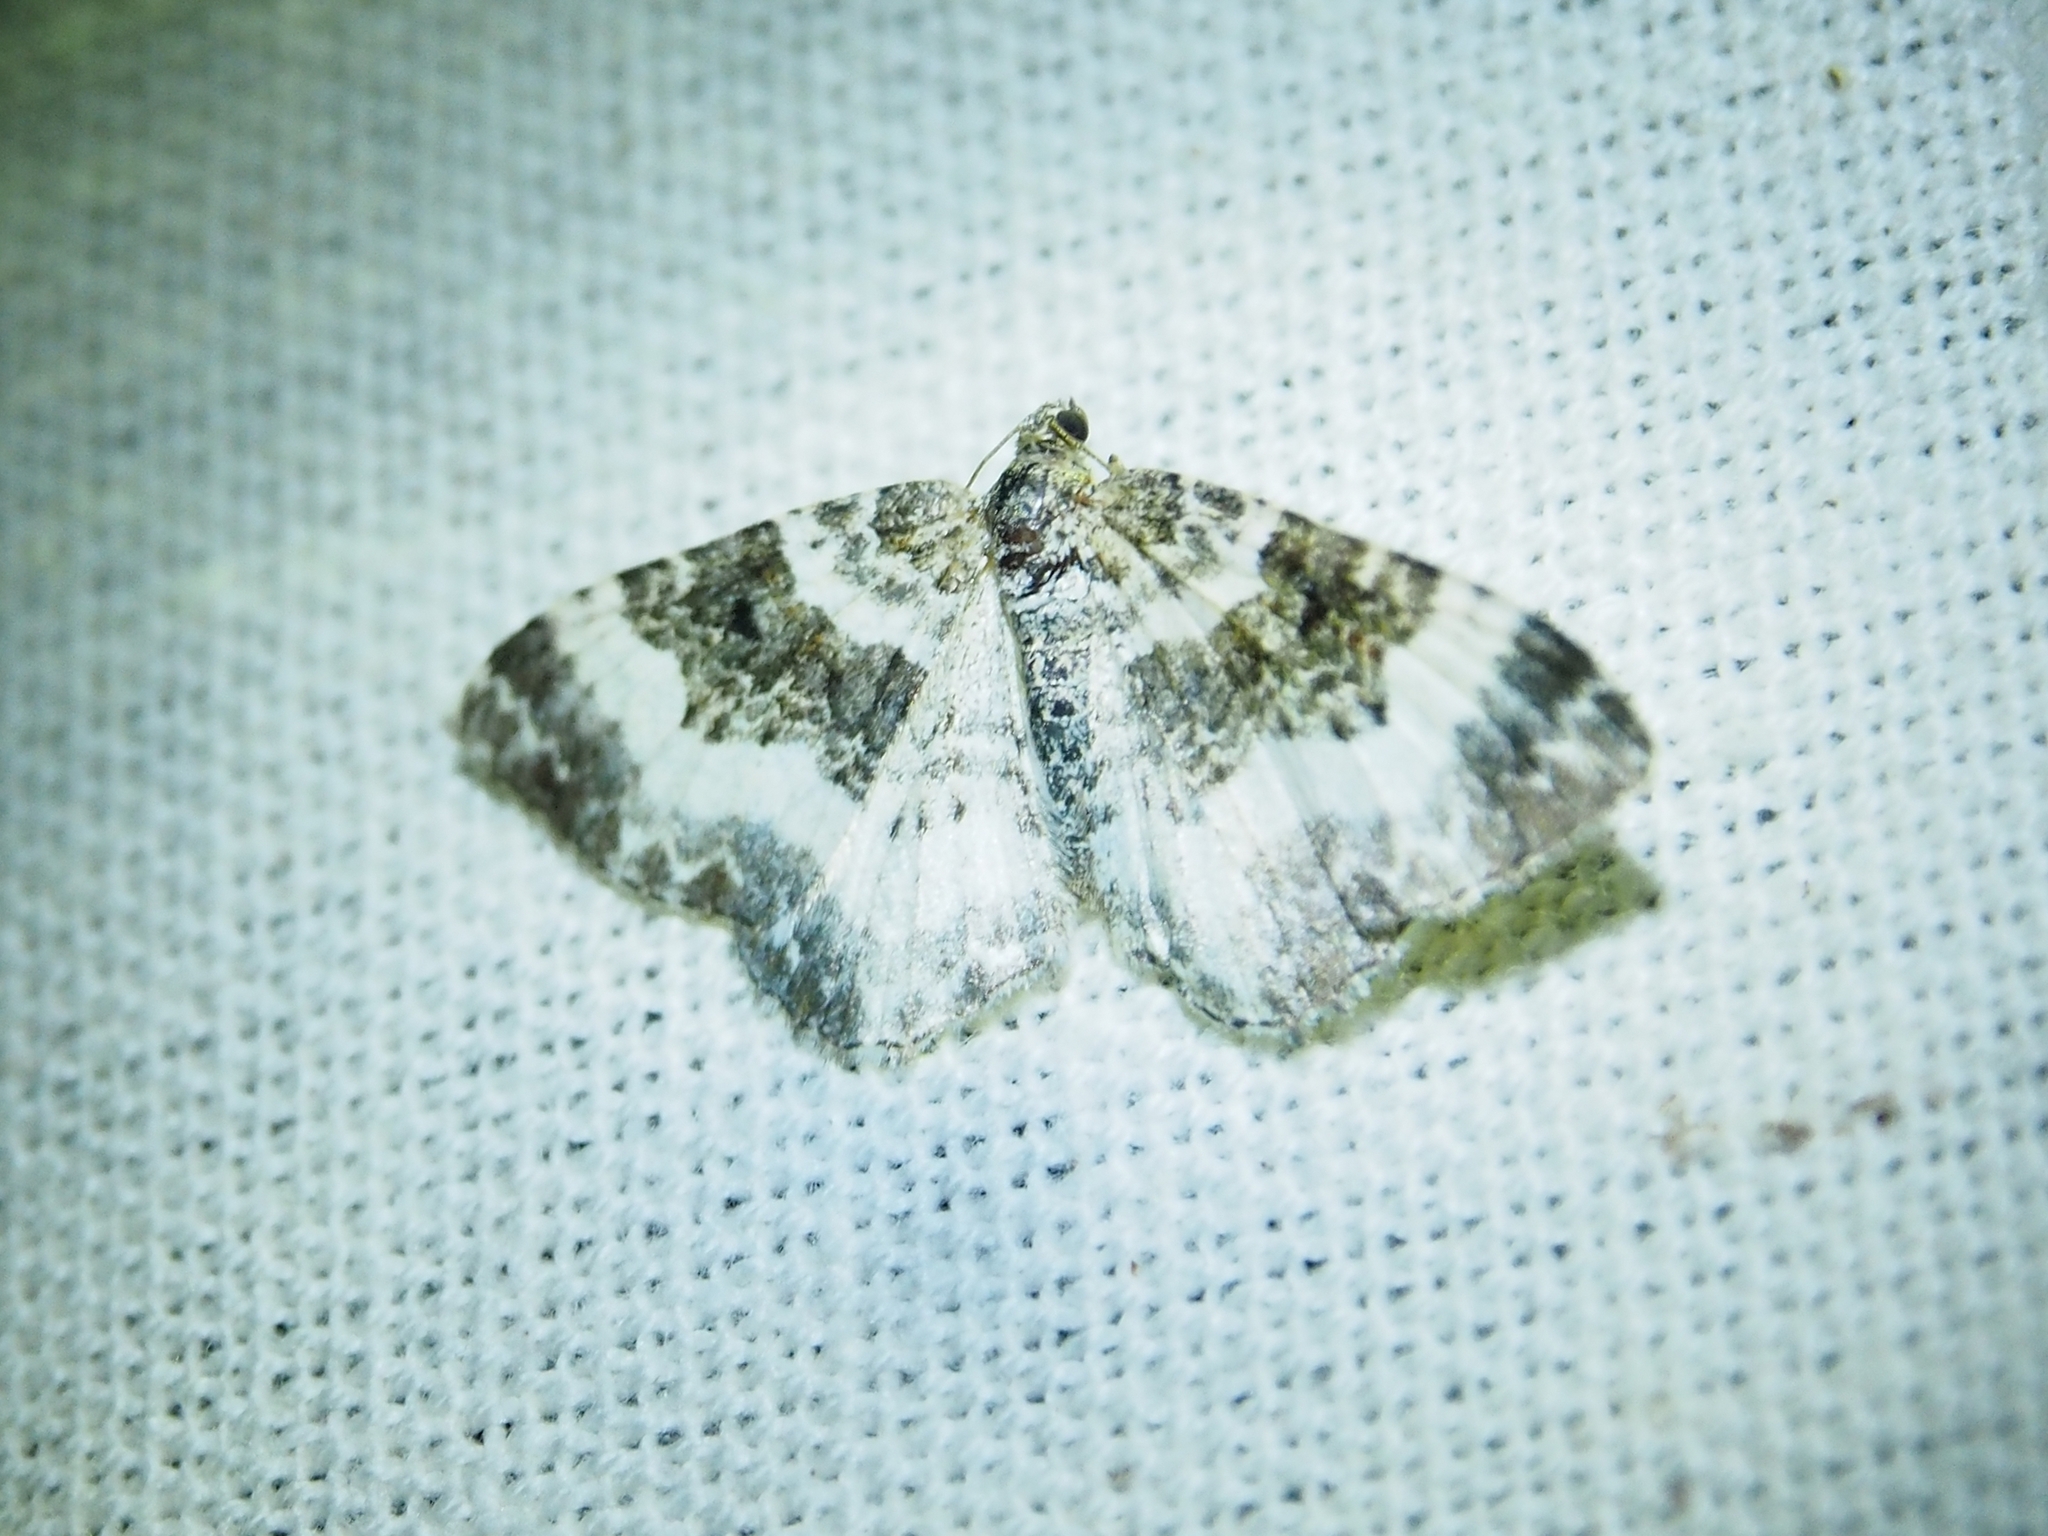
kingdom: Animalia
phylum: Arthropoda
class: Insecta
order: Lepidoptera
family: Geometridae
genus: Epirrhoe
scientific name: Epirrhoe rivata
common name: Wood carpet
